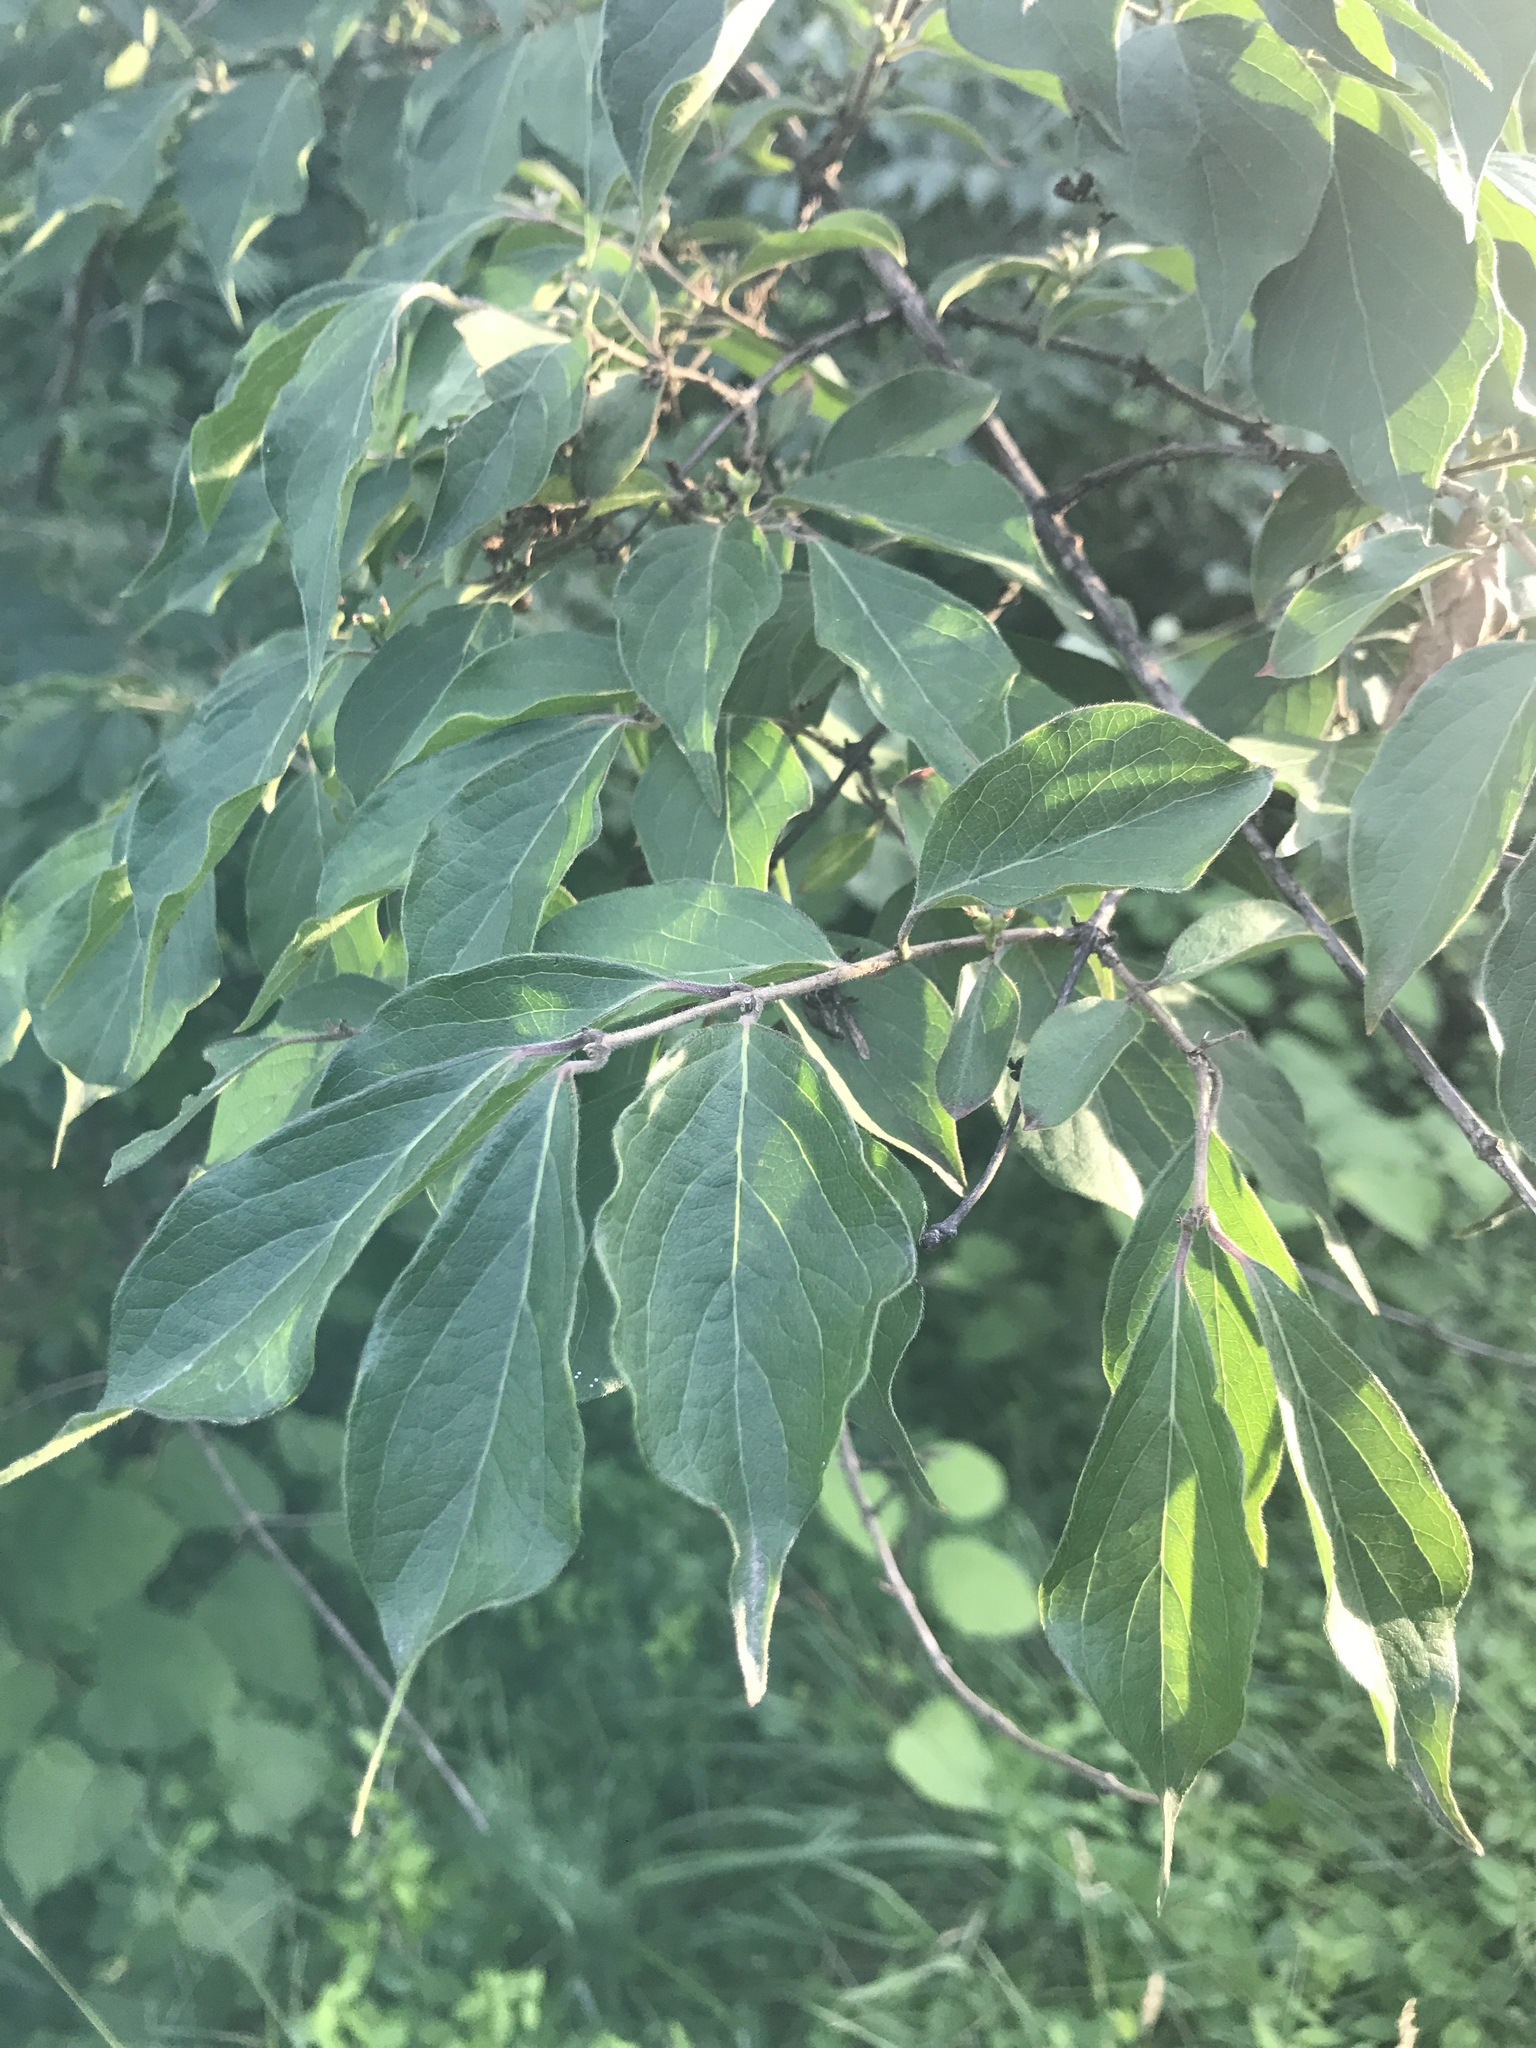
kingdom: Plantae
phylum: Tracheophyta
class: Magnoliopsida
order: Dipsacales
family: Caprifoliaceae
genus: Lonicera
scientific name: Lonicera maackii
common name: Amur honeysuckle
